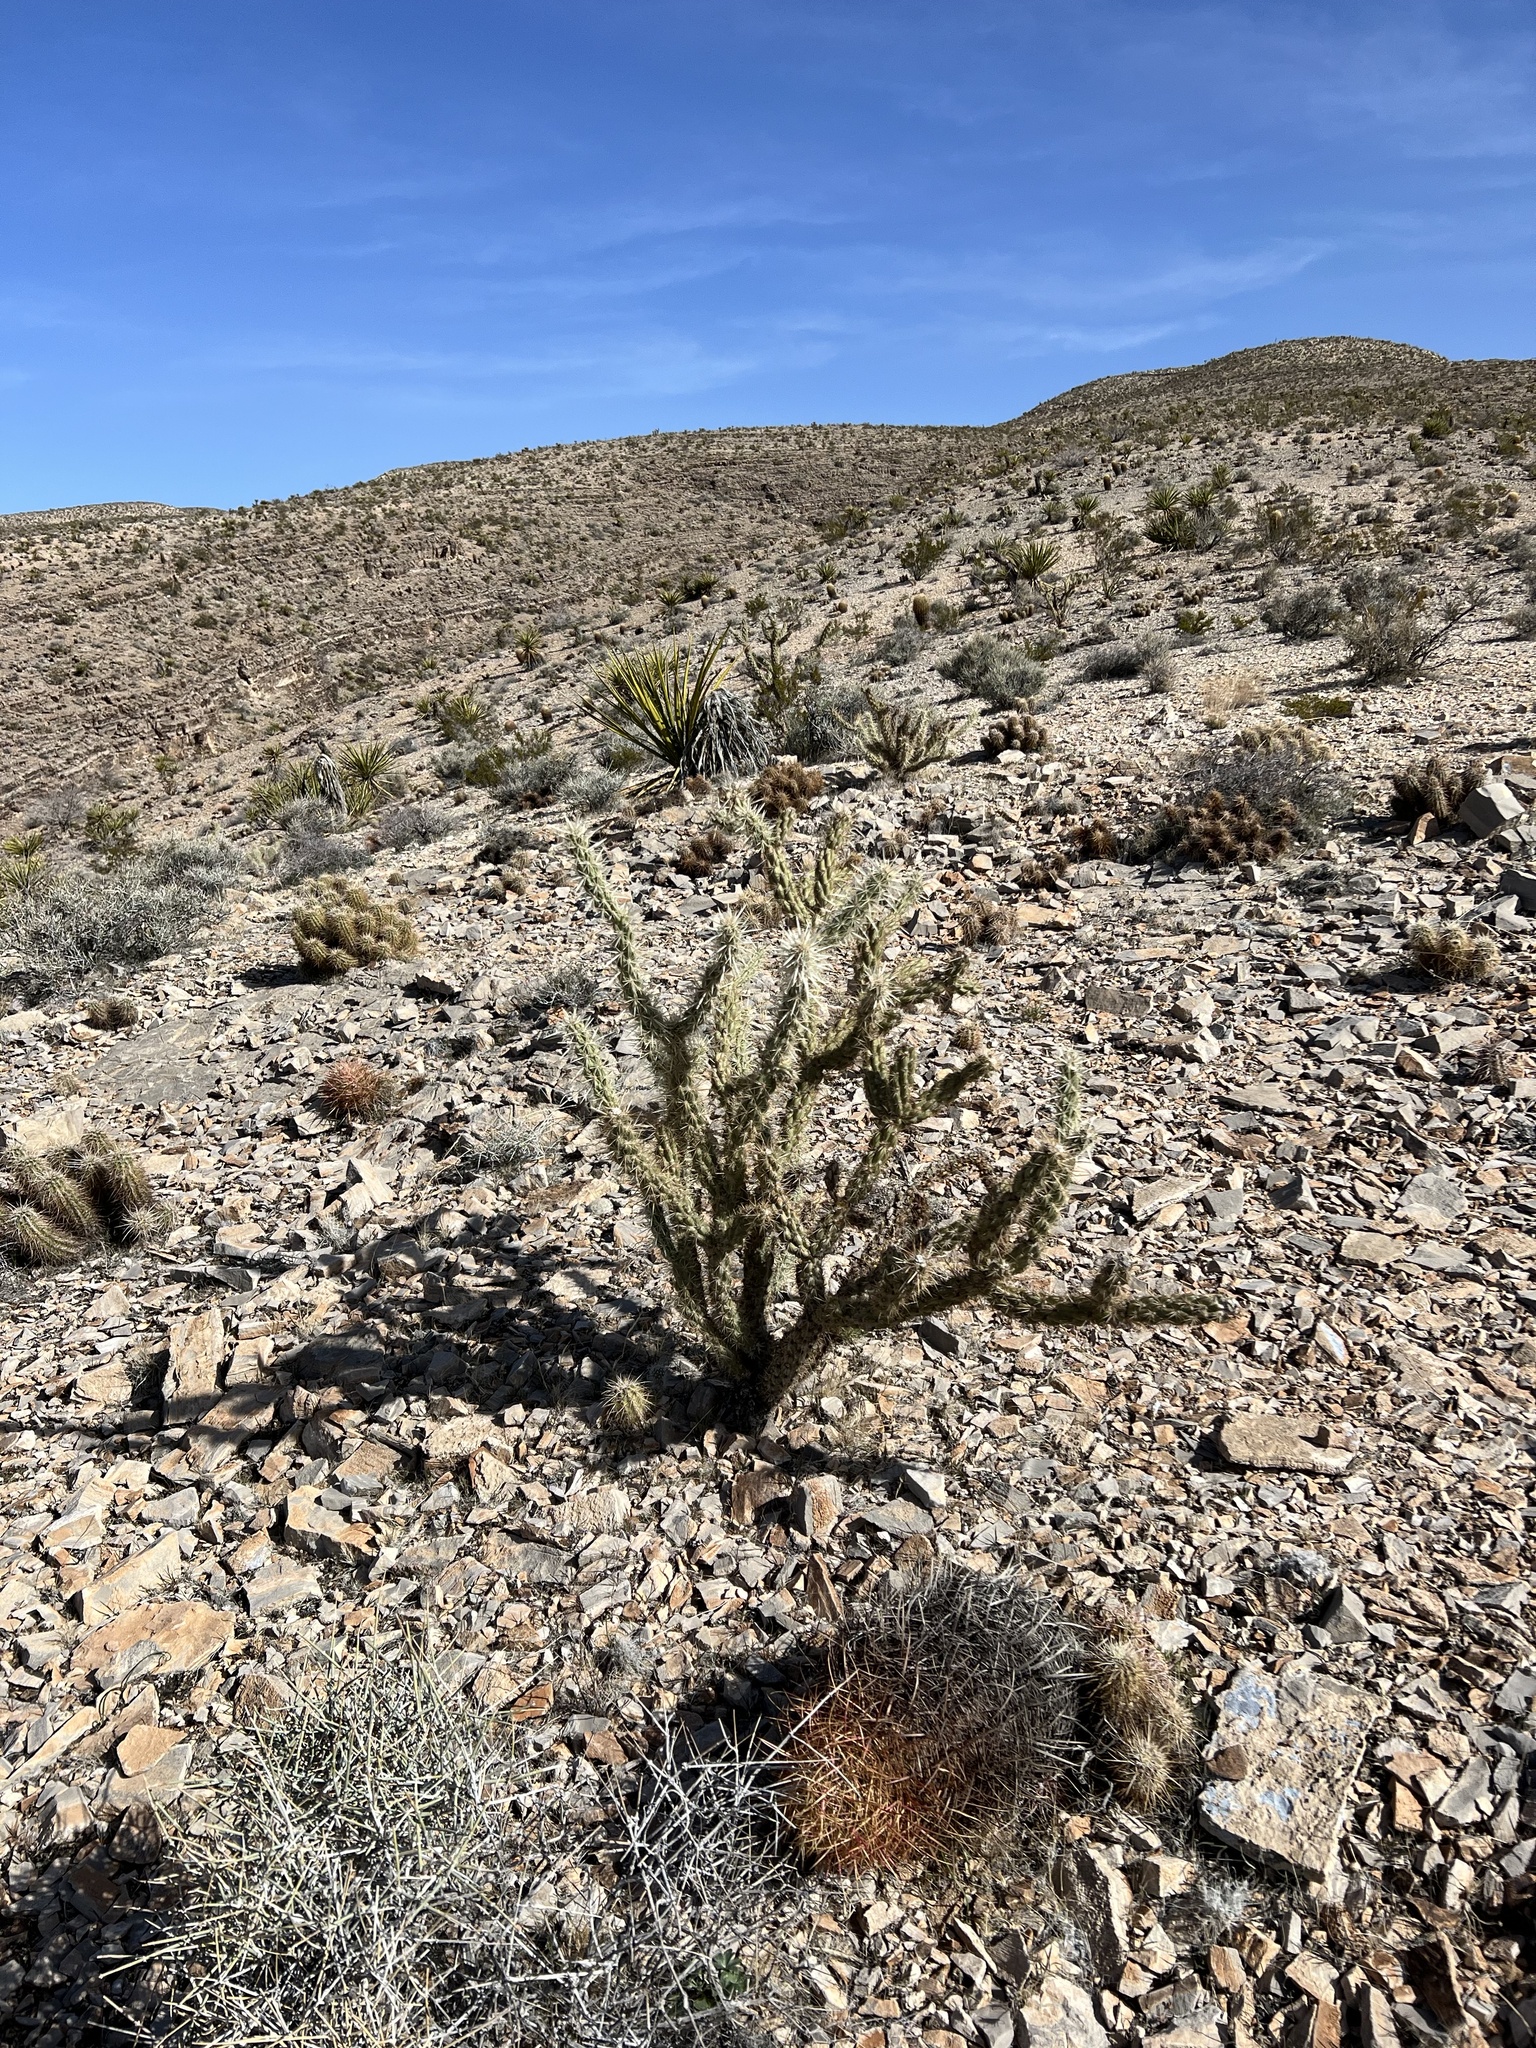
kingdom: Plantae
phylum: Tracheophyta
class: Magnoliopsida
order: Caryophyllales
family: Cactaceae
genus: Cylindropuntia
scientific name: Cylindropuntia acanthocarpa
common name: Buckhorn cholla
